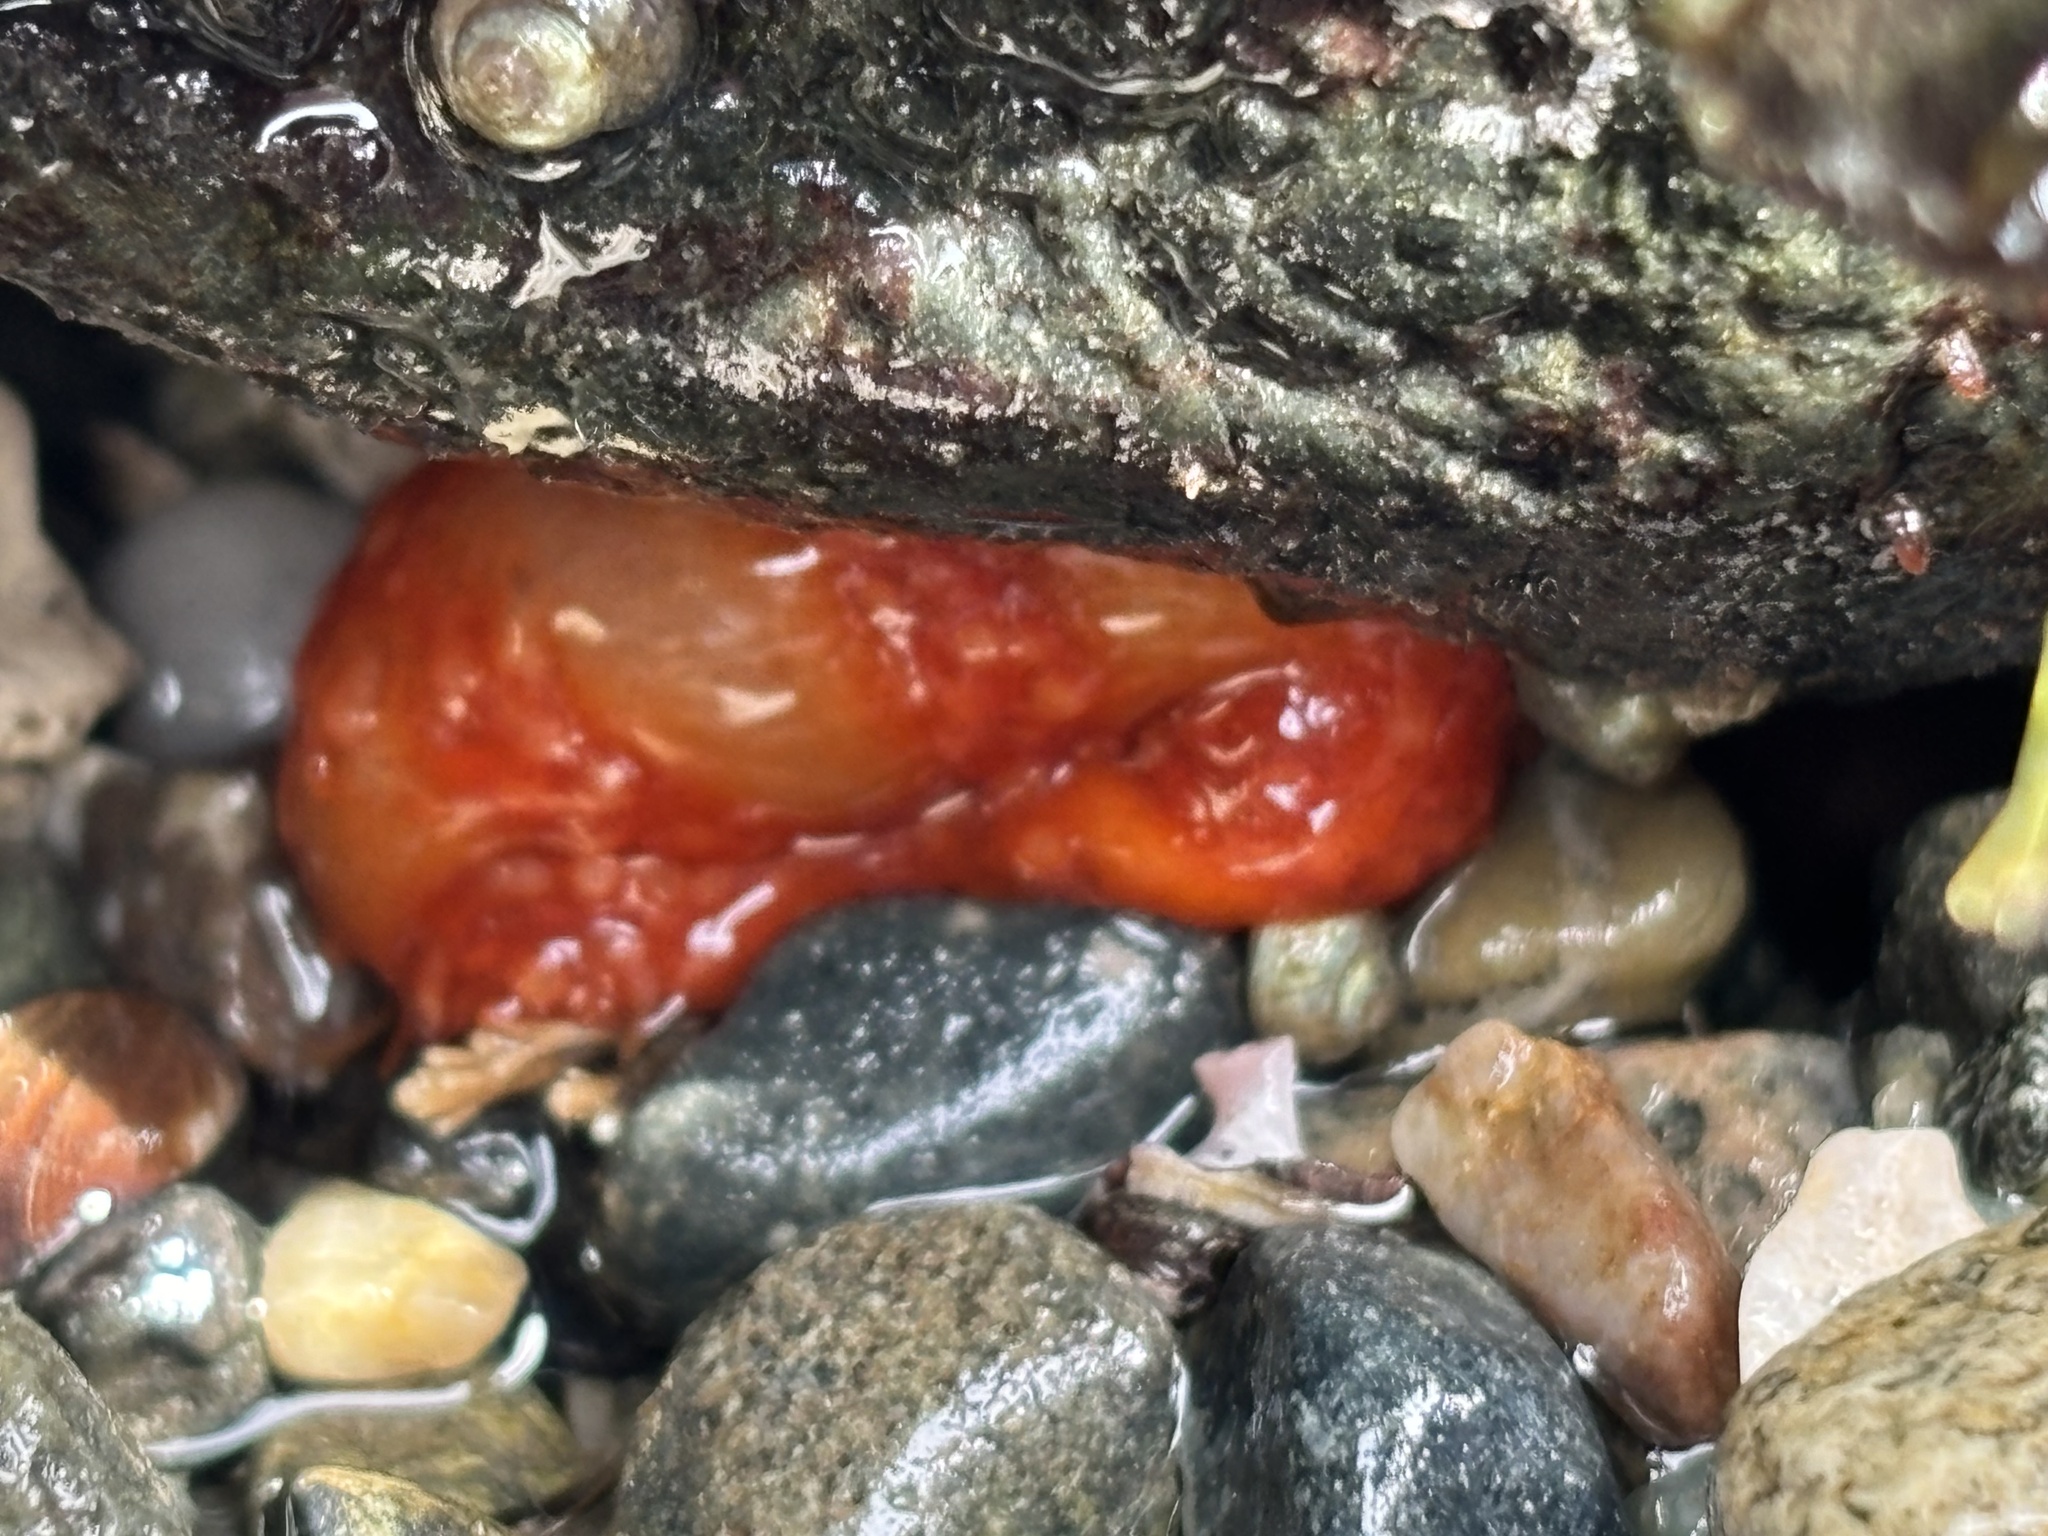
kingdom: Animalia
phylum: Echinodermata
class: Holothuroidea
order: Dendrochirotida
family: Cucumariidae
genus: Cucumaria
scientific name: Cucumaria miniata
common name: Orange sea cucumber
